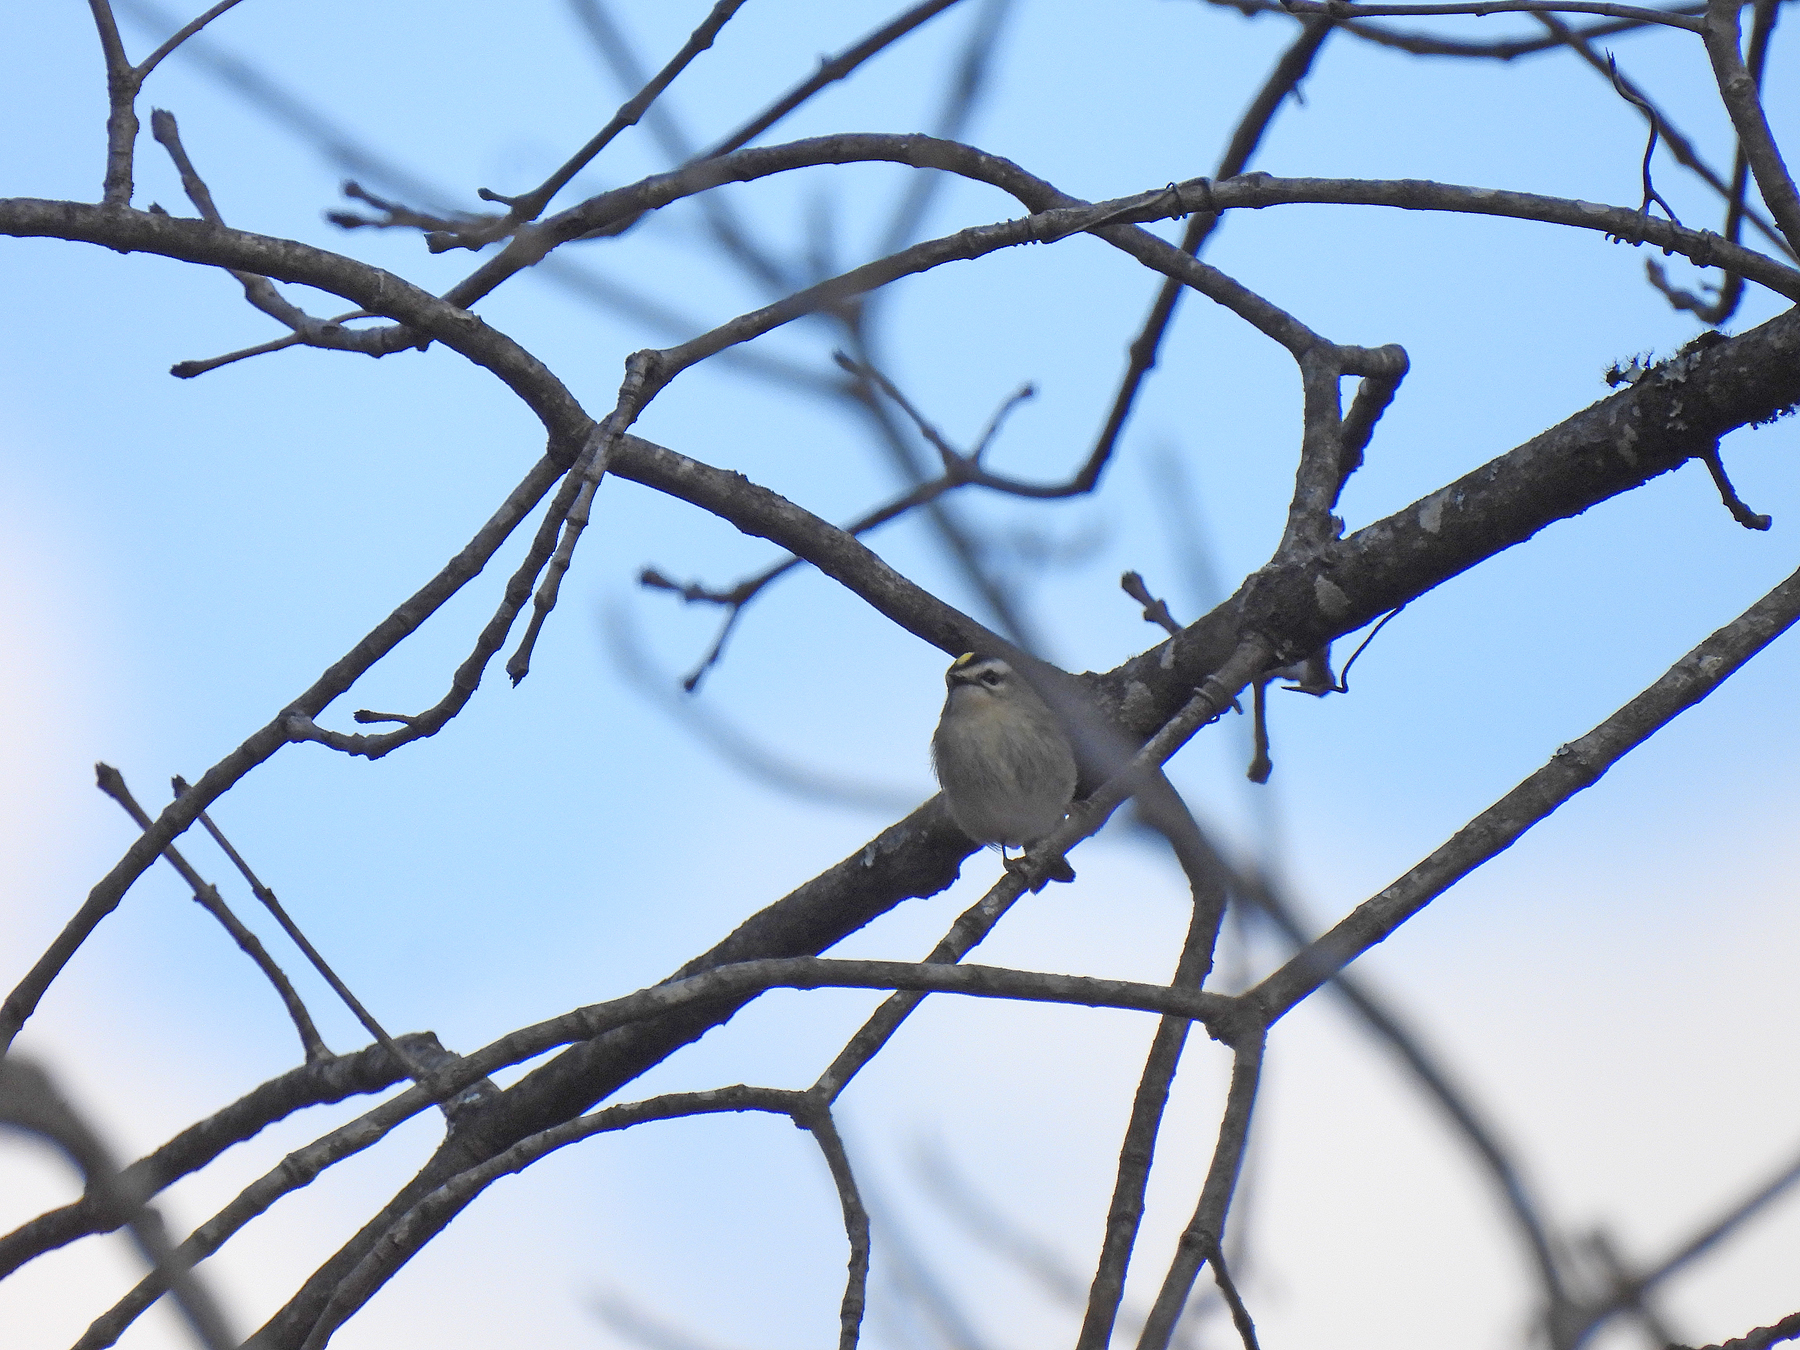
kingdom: Animalia
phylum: Chordata
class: Aves
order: Passeriformes
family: Regulidae
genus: Regulus
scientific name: Regulus satrapa
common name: Golden-crowned kinglet
